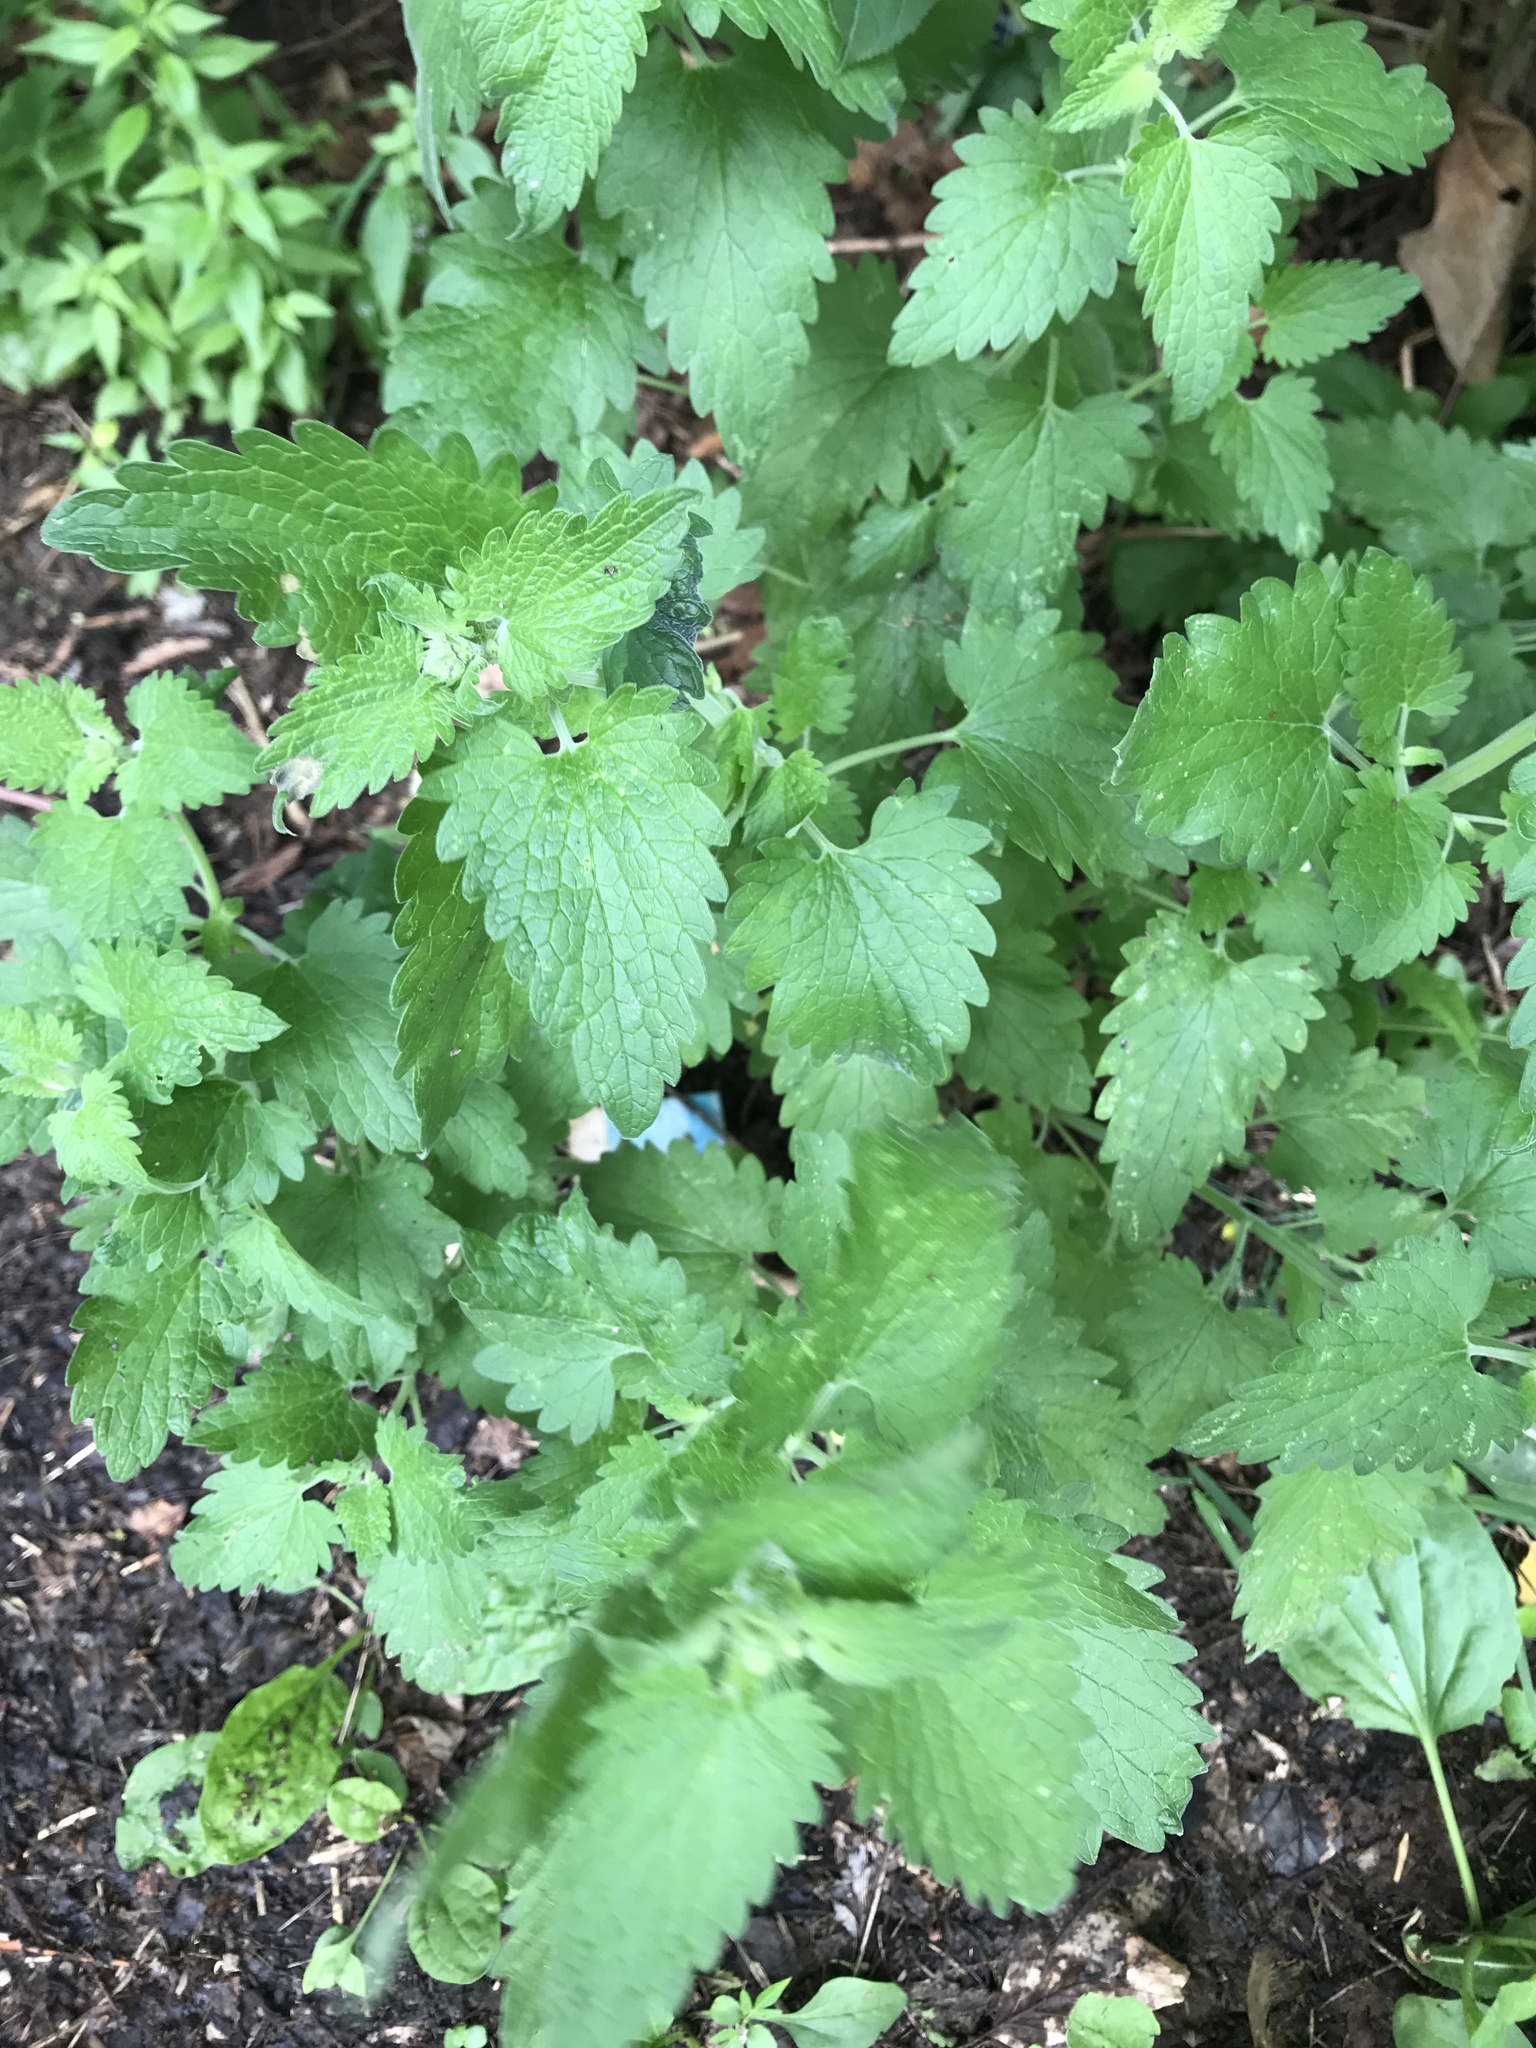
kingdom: Plantae
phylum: Tracheophyta
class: Magnoliopsida
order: Lamiales
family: Lamiaceae
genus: Nepeta
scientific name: Nepeta cataria
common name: Catnip
